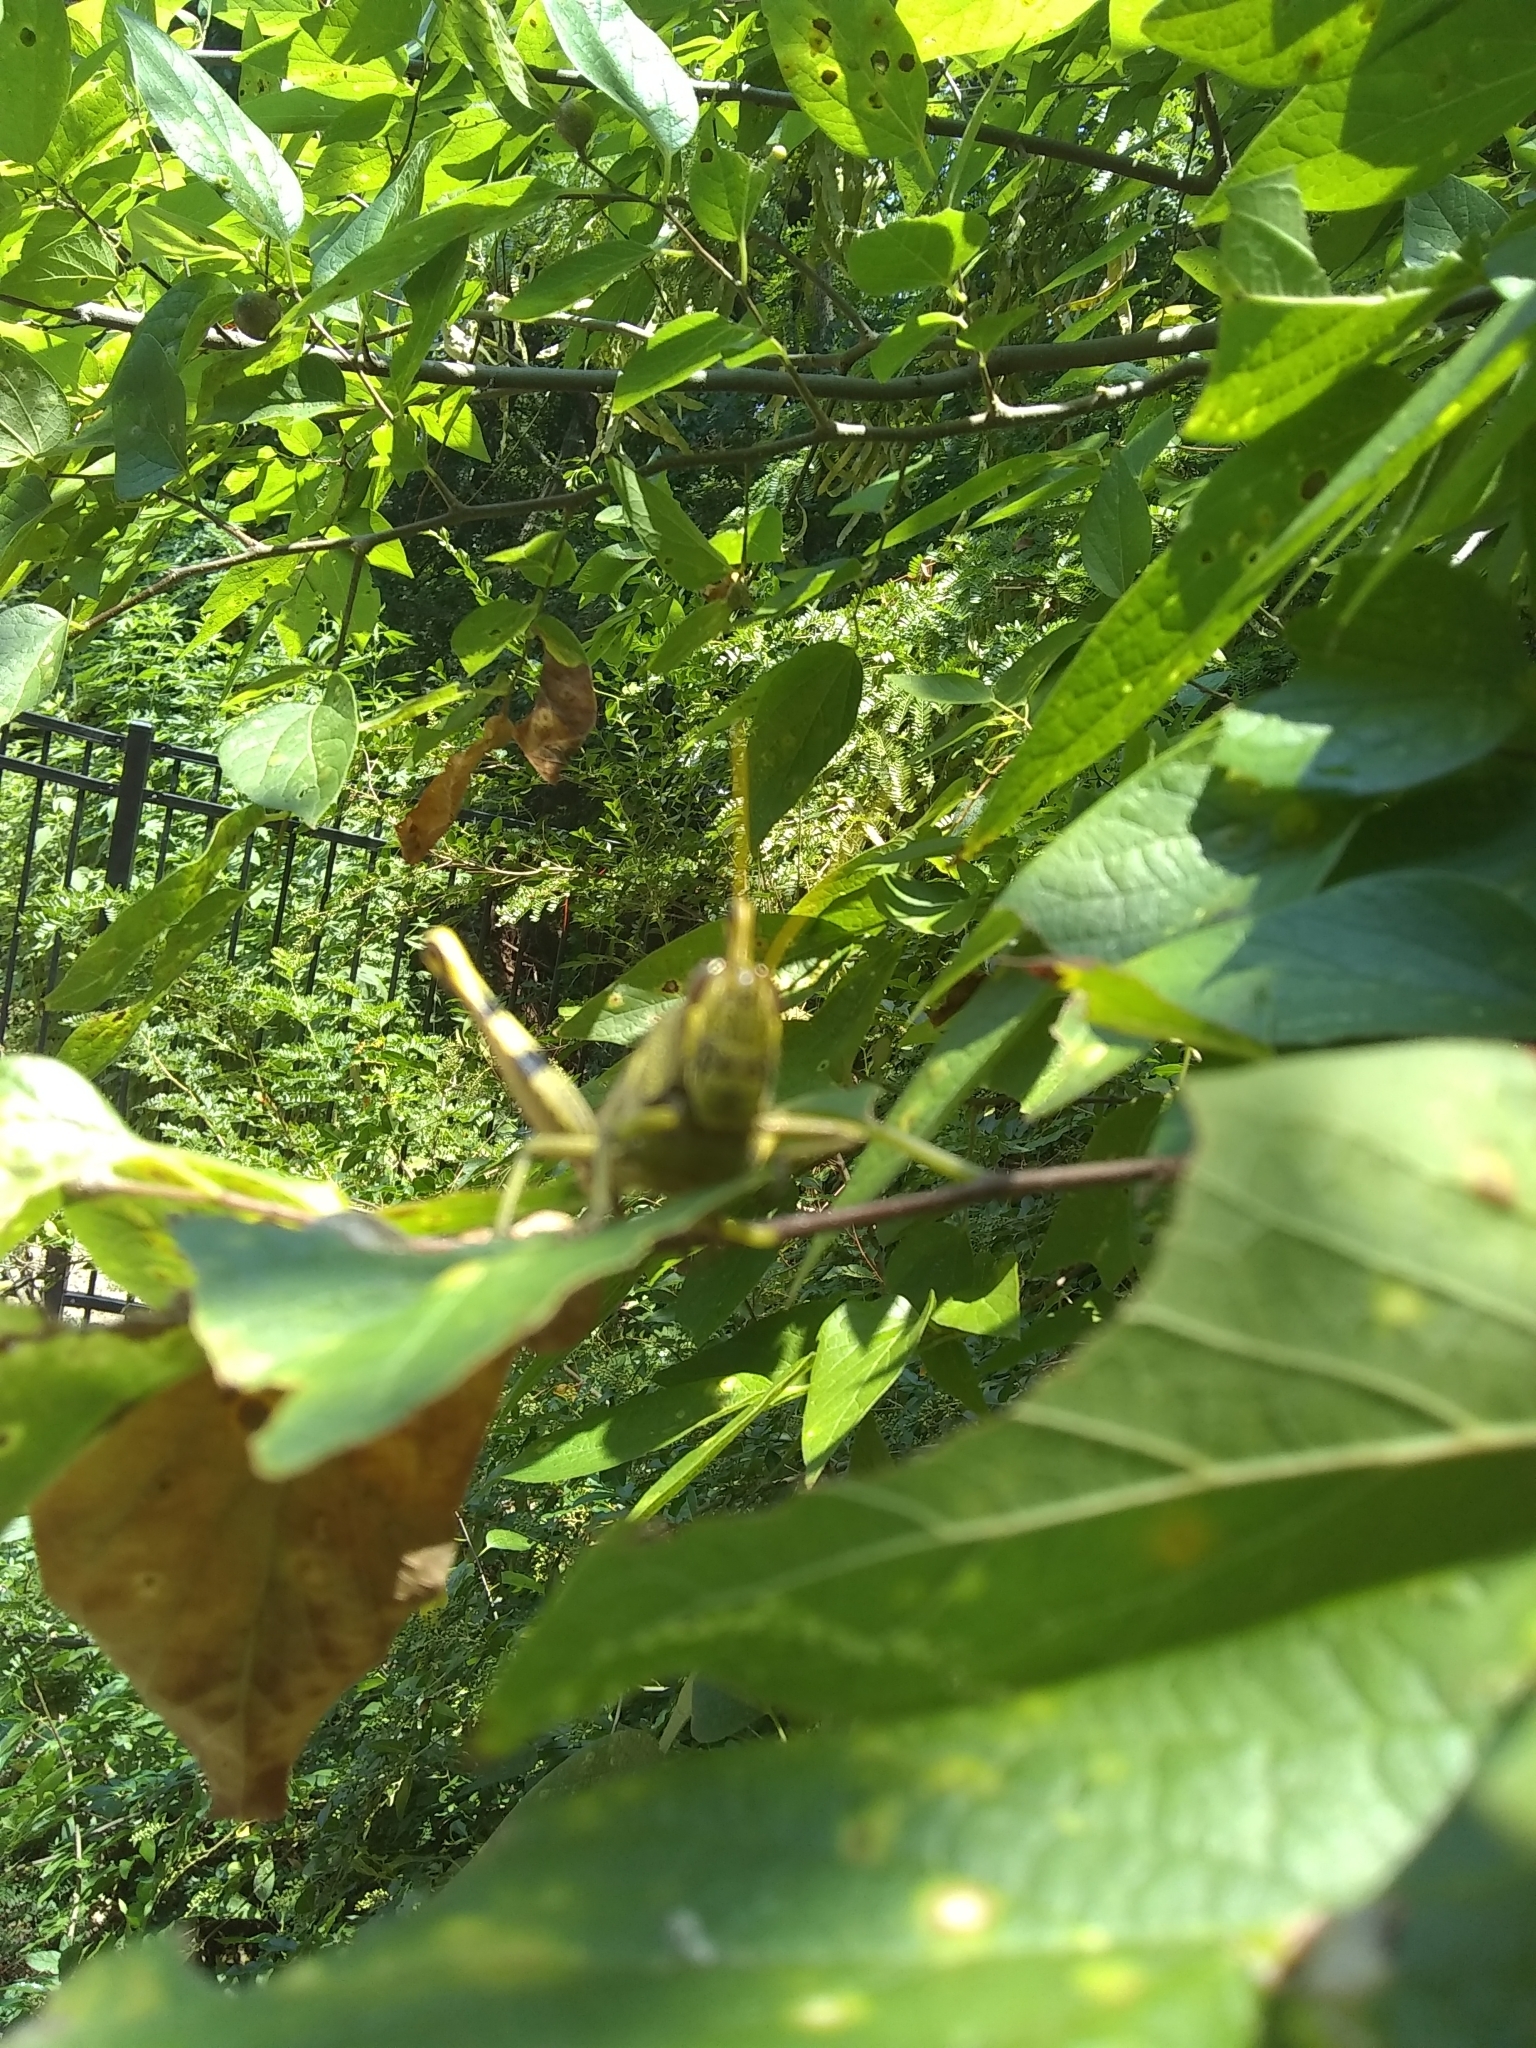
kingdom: Animalia
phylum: Arthropoda
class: Insecta
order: Orthoptera
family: Acrididae
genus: Schistocerca
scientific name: Schistocerca obscura
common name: Obscure bird grasshopper
